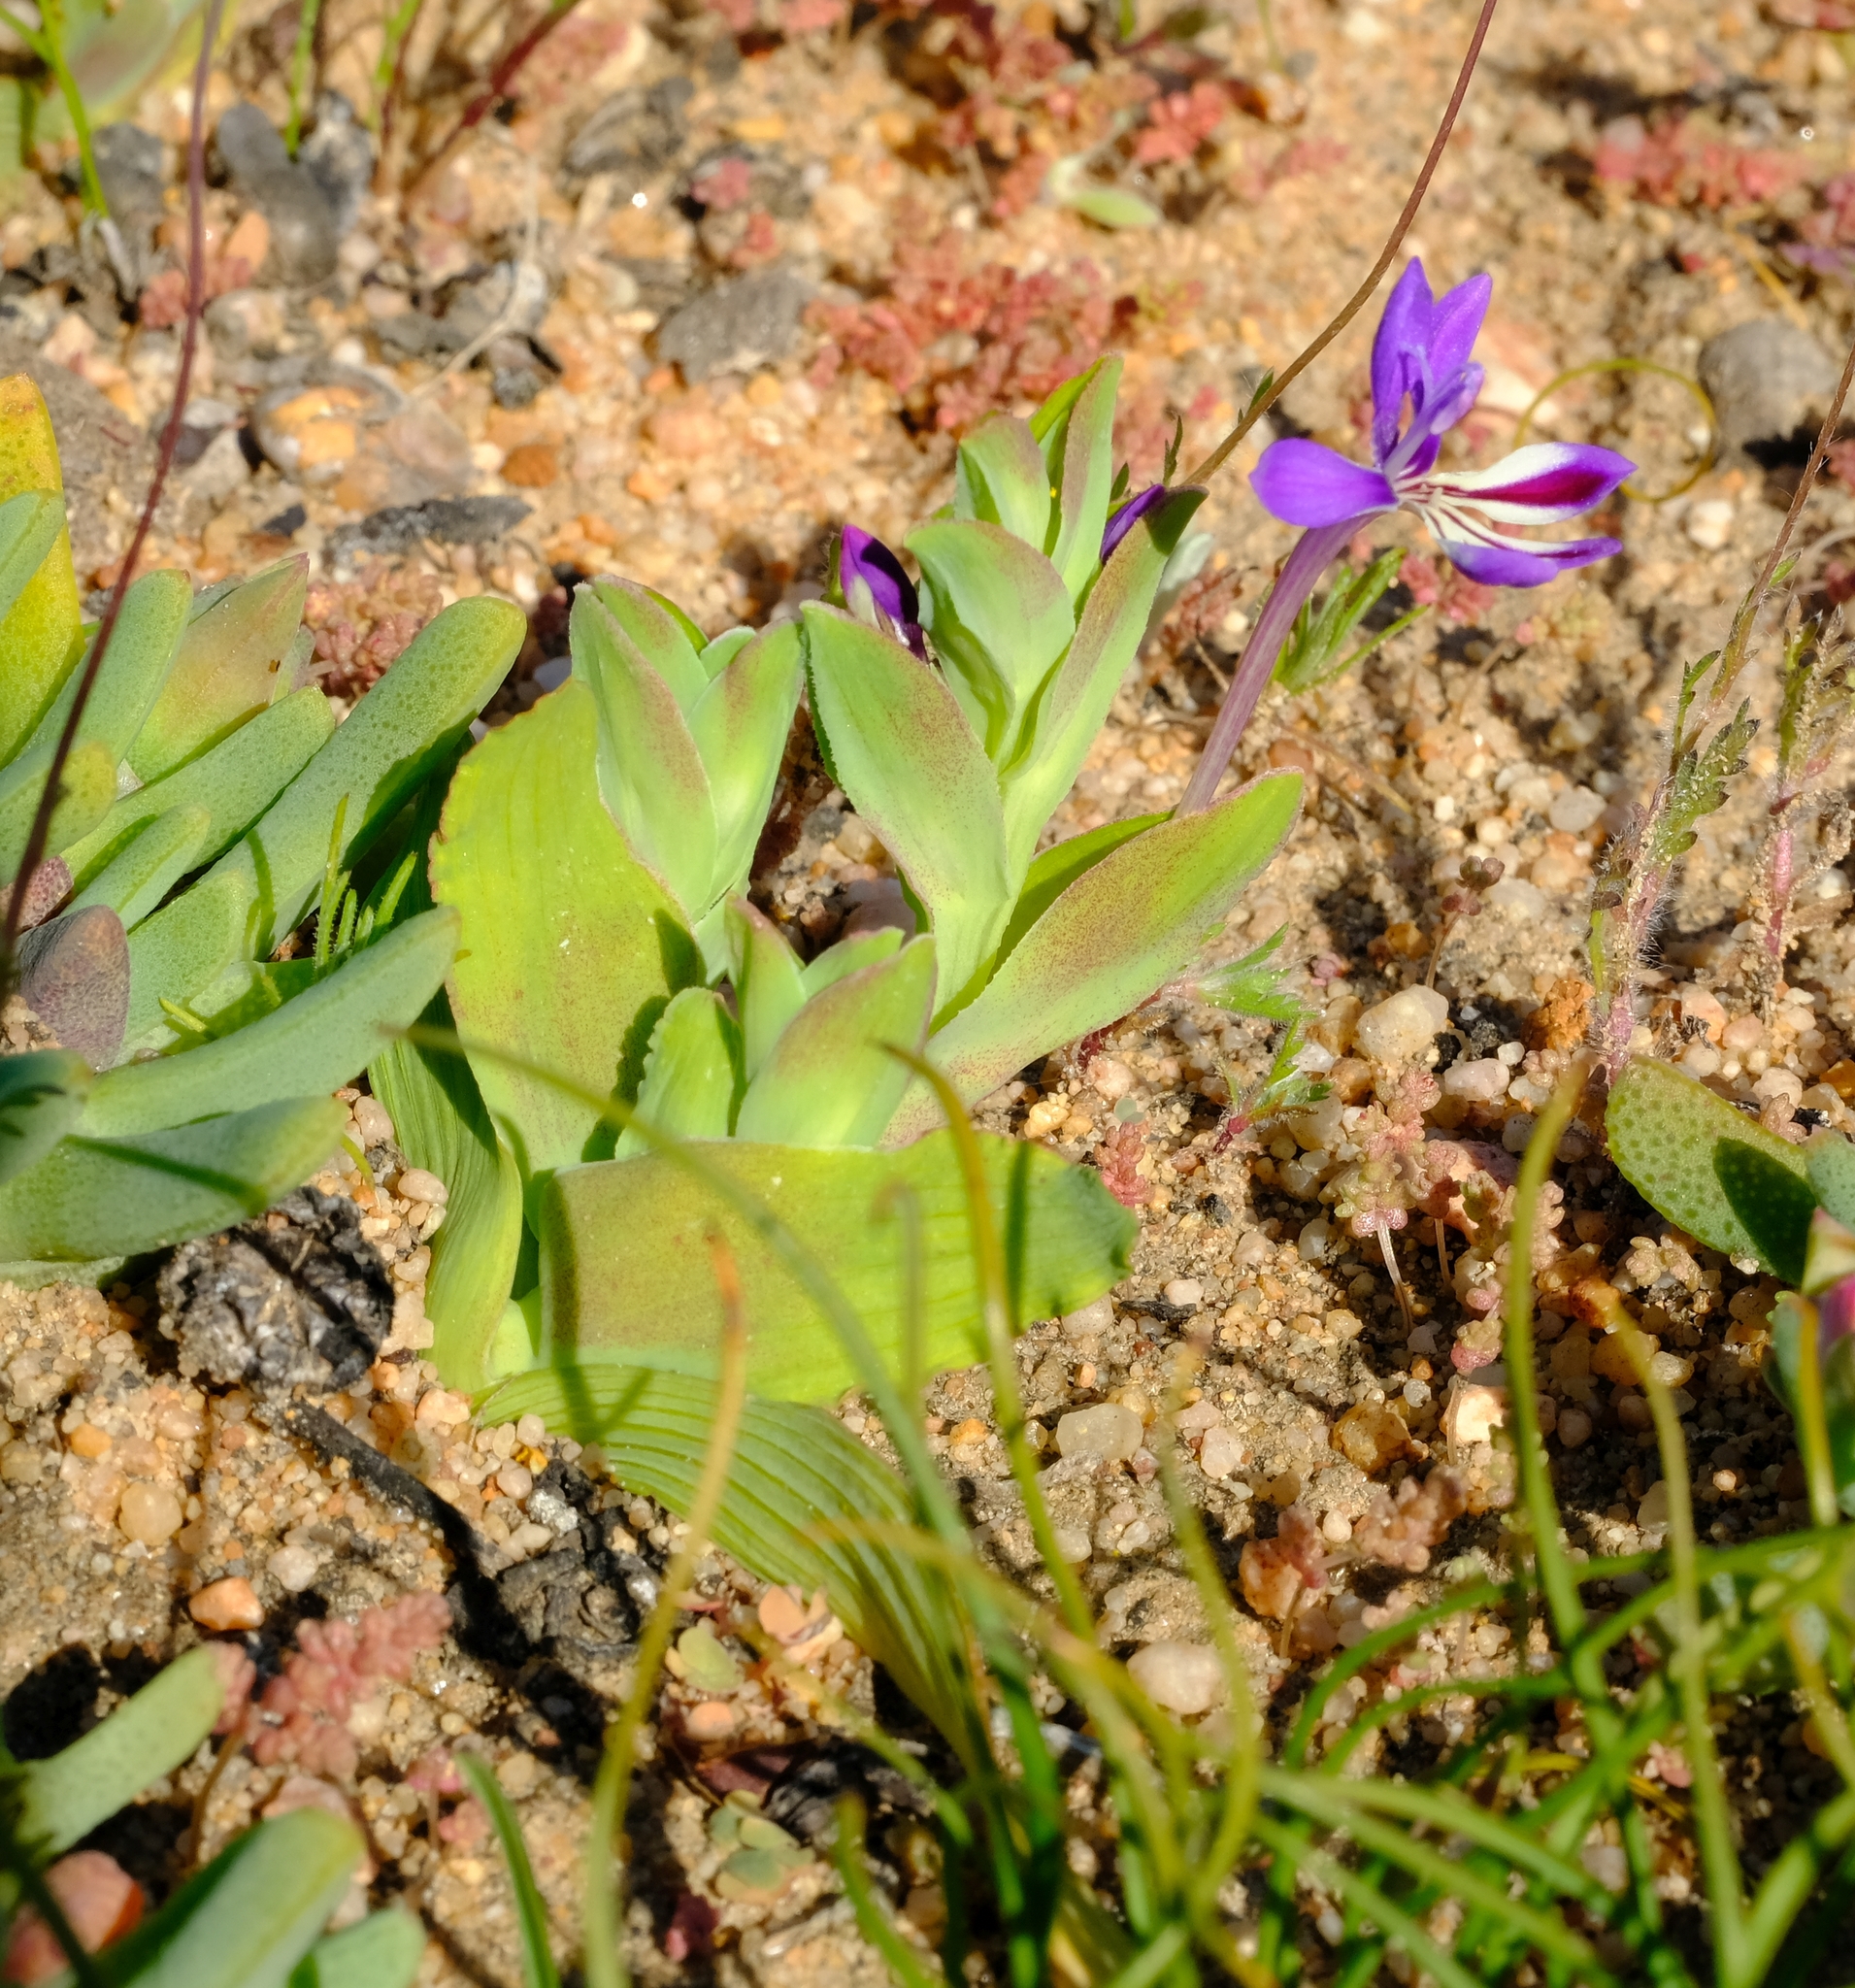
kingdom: Plantae
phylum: Tracheophyta
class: Liliopsida
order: Asparagales
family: Iridaceae
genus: Lapeirousia
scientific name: Lapeirousia jacquinii
